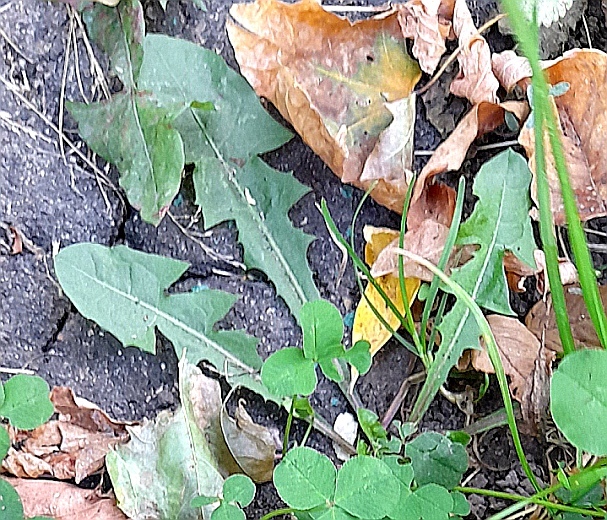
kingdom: Plantae
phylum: Tracheophyta
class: Magnoliopsida
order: Asterales
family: Asteraceae
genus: Taraxacum
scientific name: Taraxacum officinale
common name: Common dandelion
